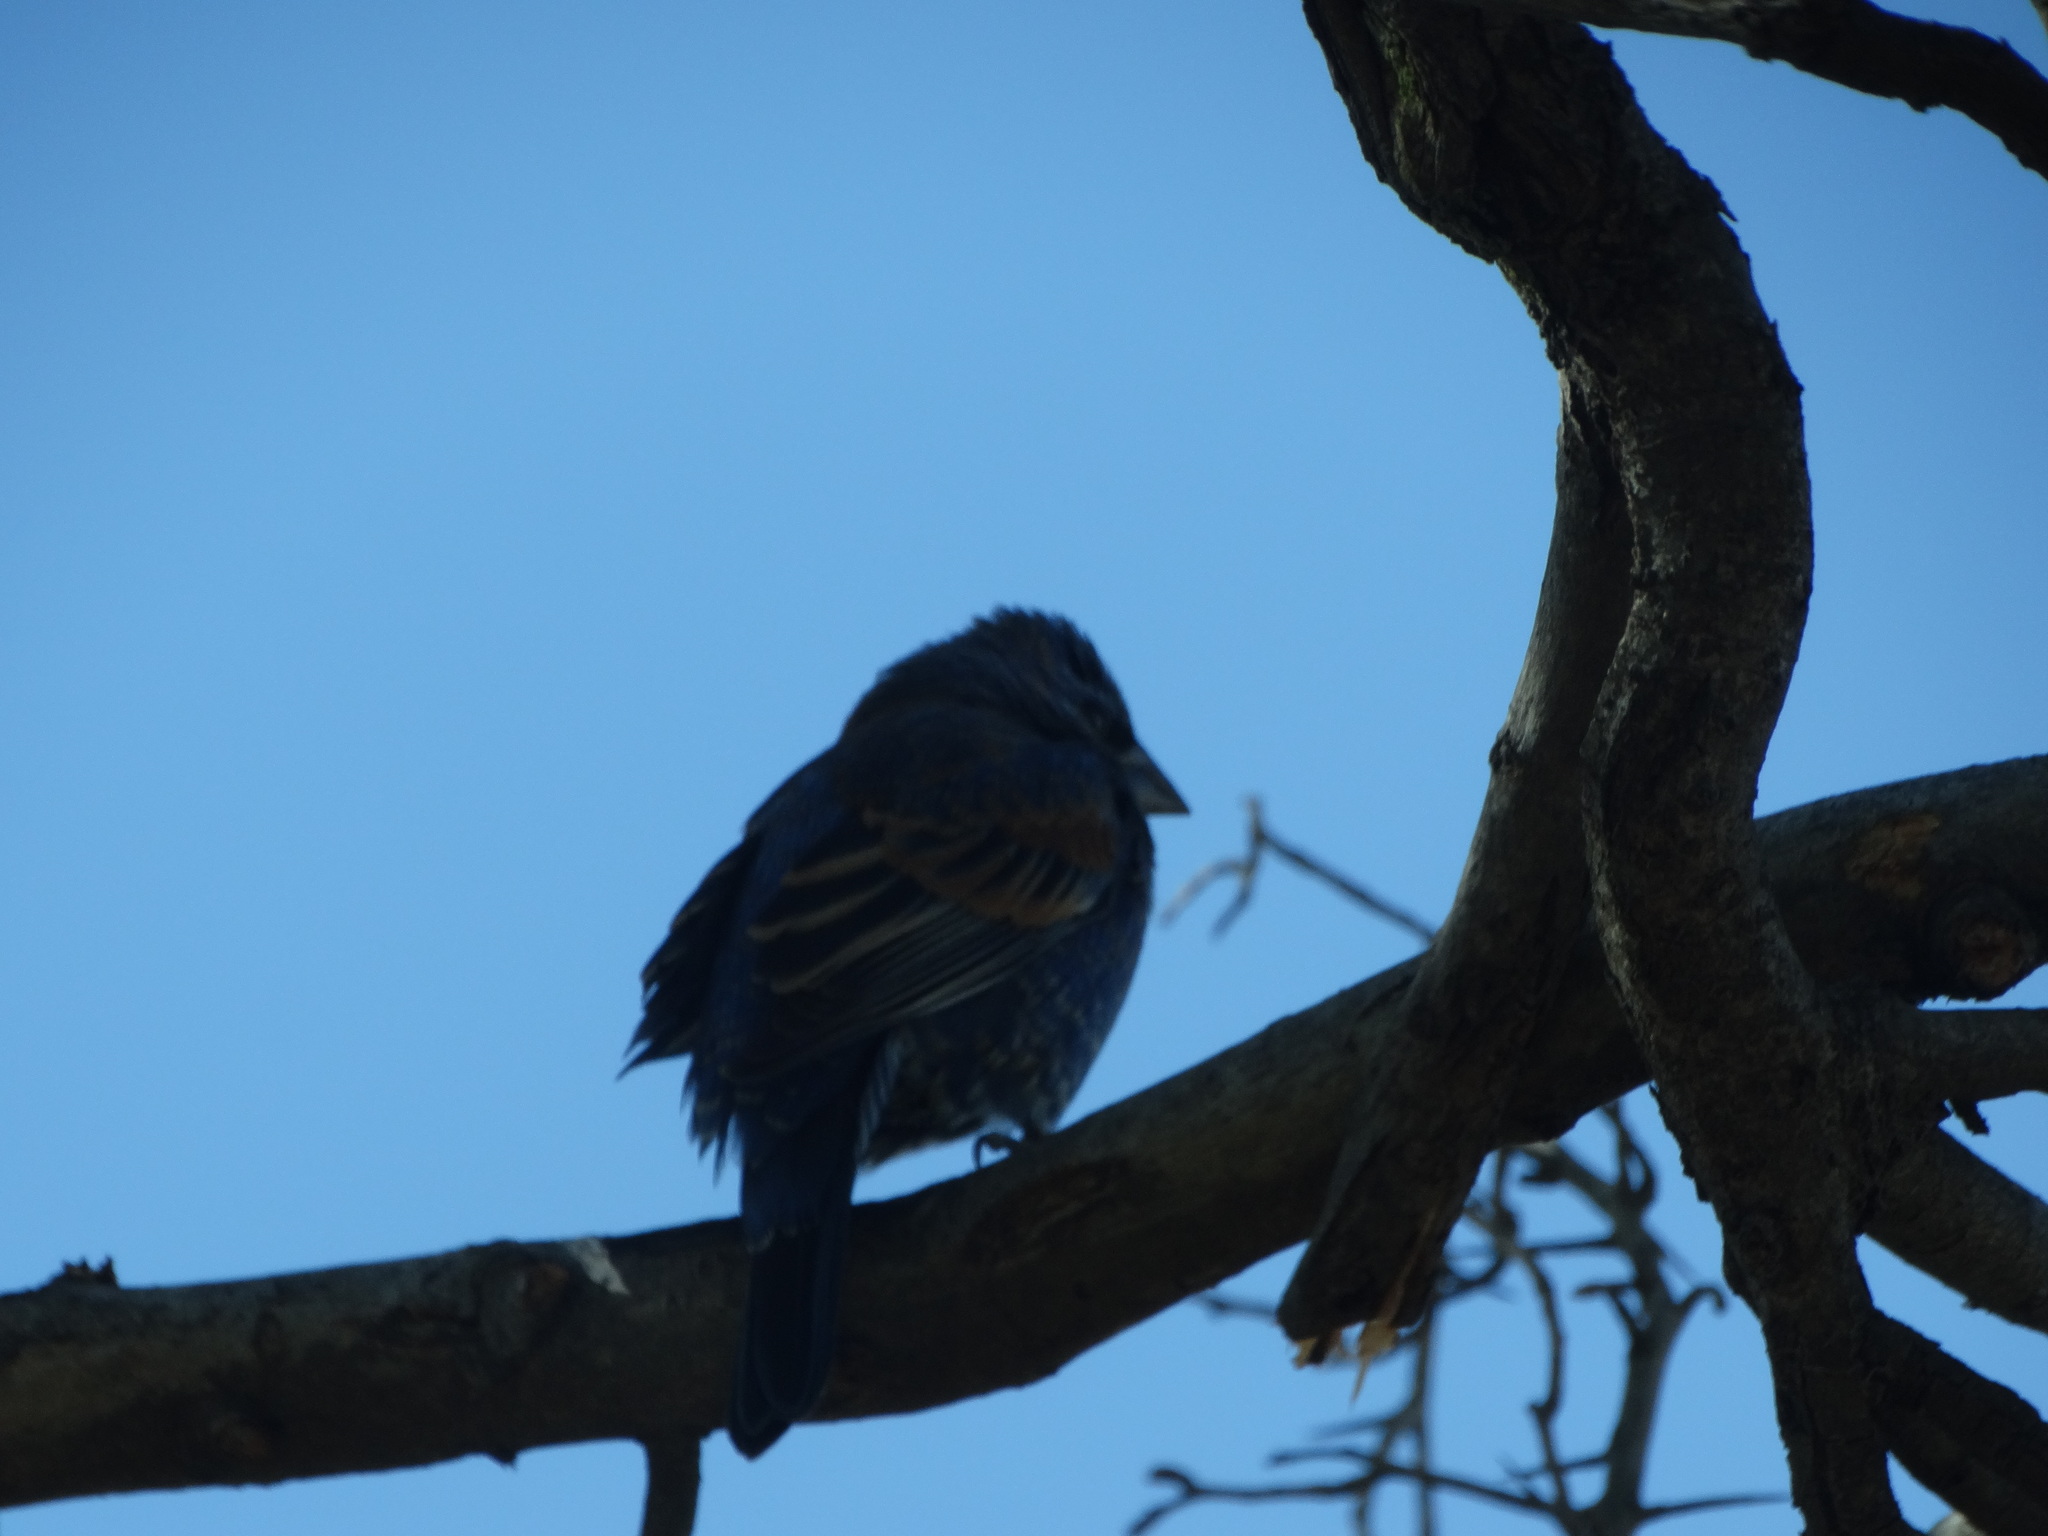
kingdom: Animalia
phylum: Chordata
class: Aves
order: Passeriformes
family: Cardinalidae
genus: Passerina
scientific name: Passerina caerulea
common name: Blue grosbeak
